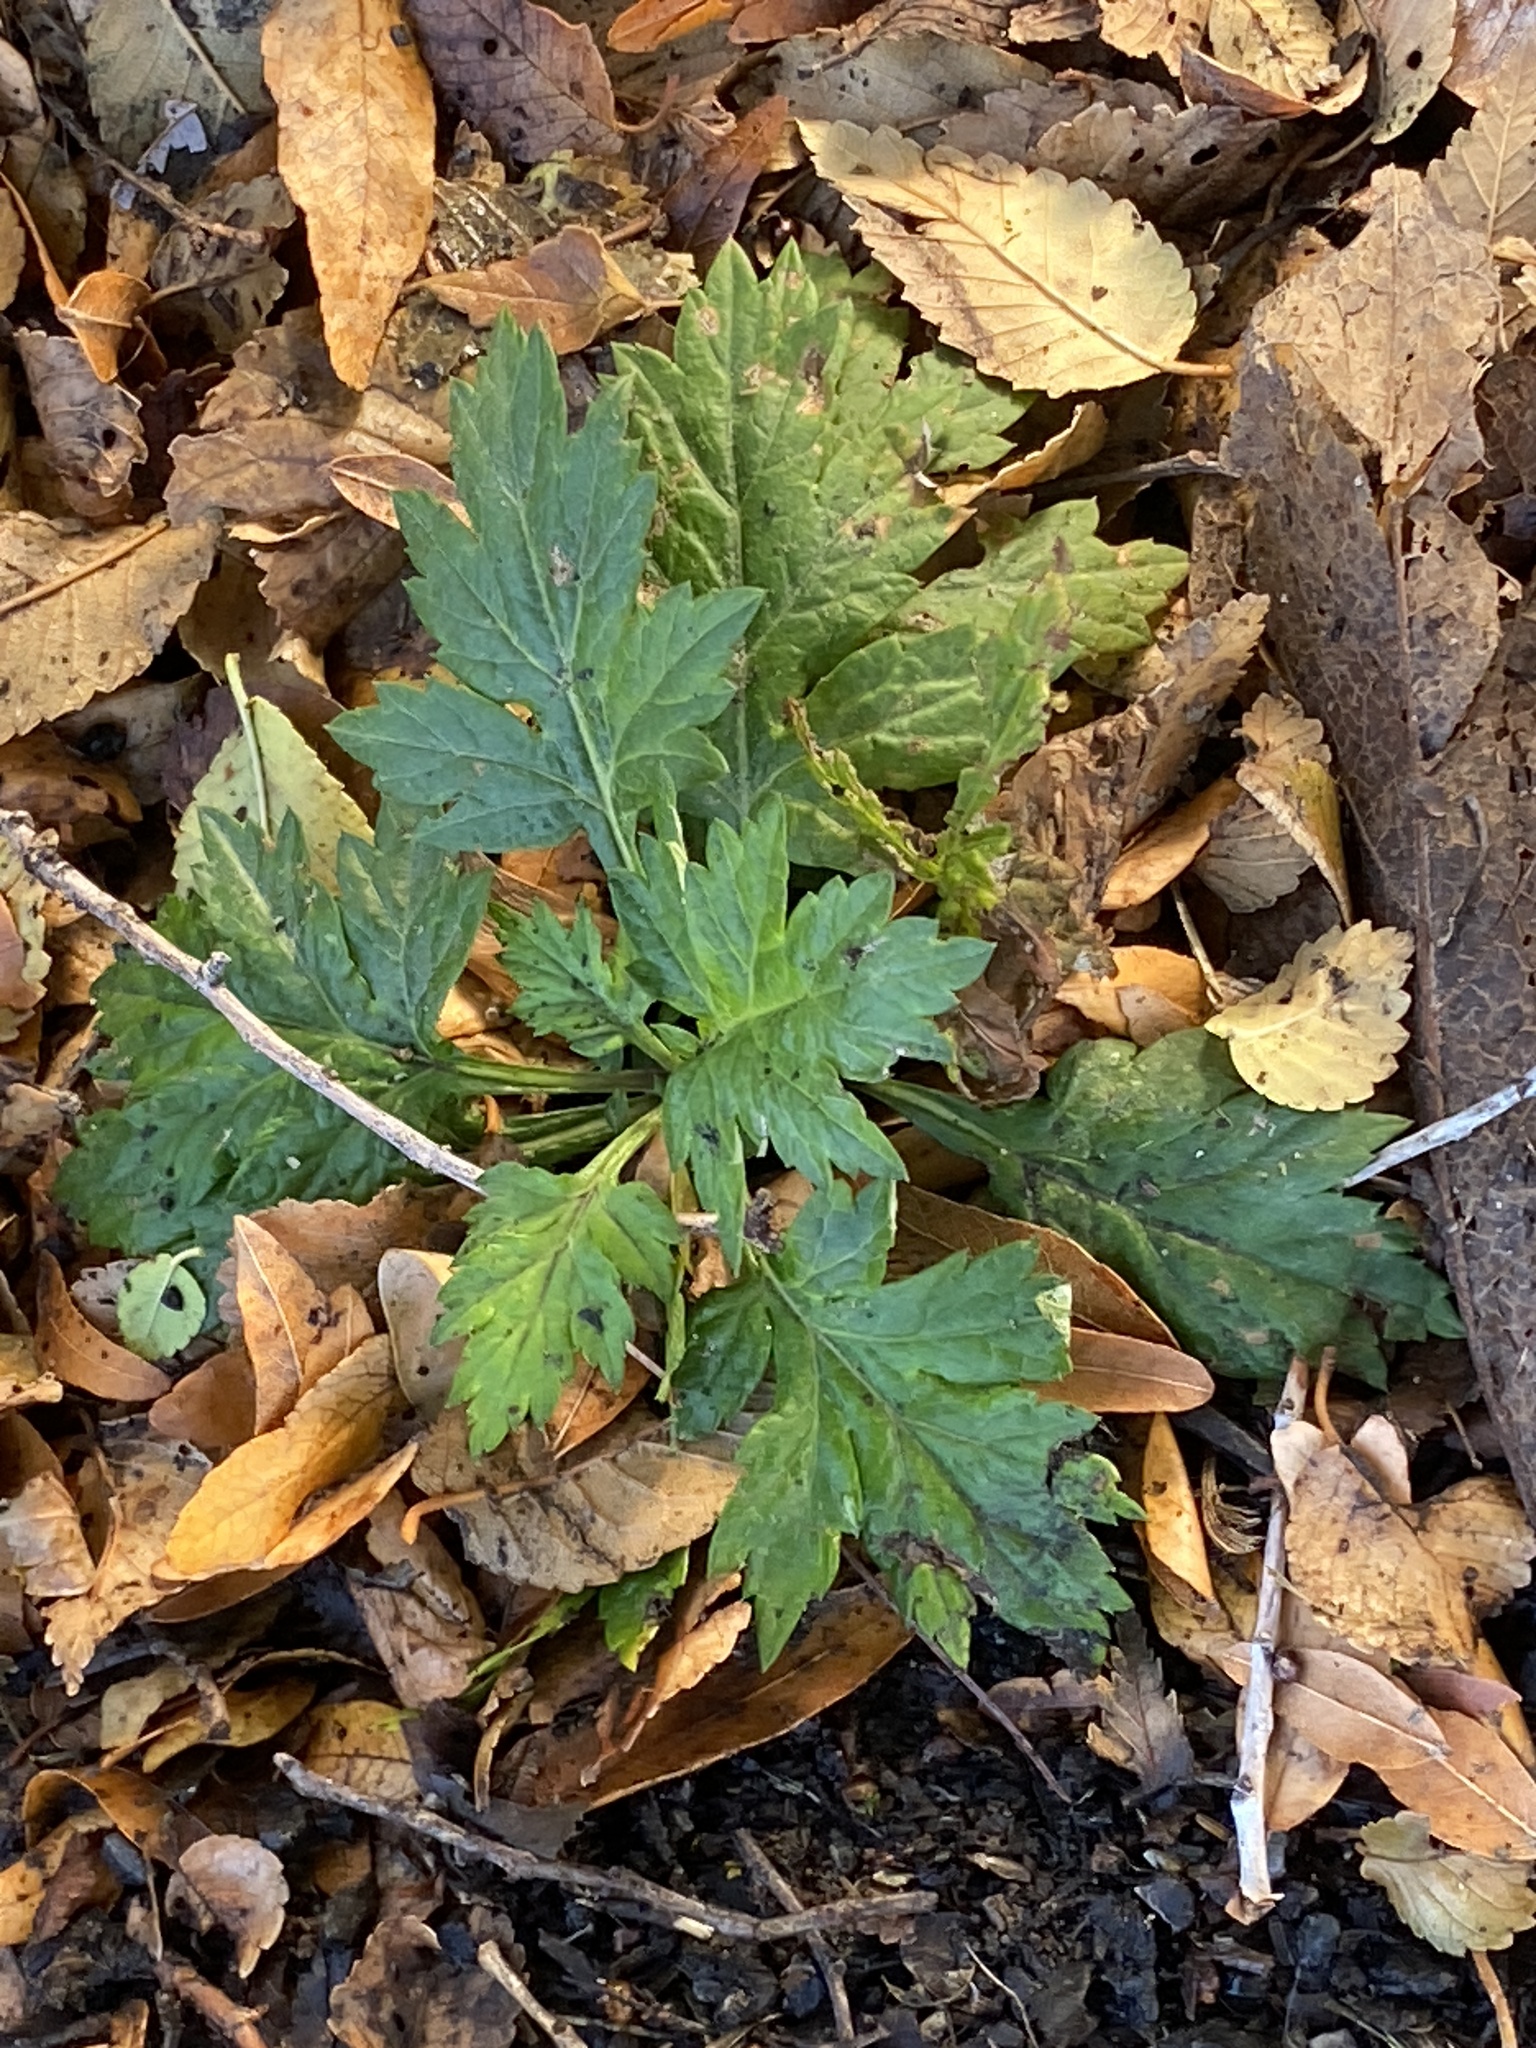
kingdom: Plantae
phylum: Tracheophyta
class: Magnoliopsida
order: Asterales
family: Asteraceae
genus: Artemisia
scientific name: Artemisia vulgaris
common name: Mugwort
